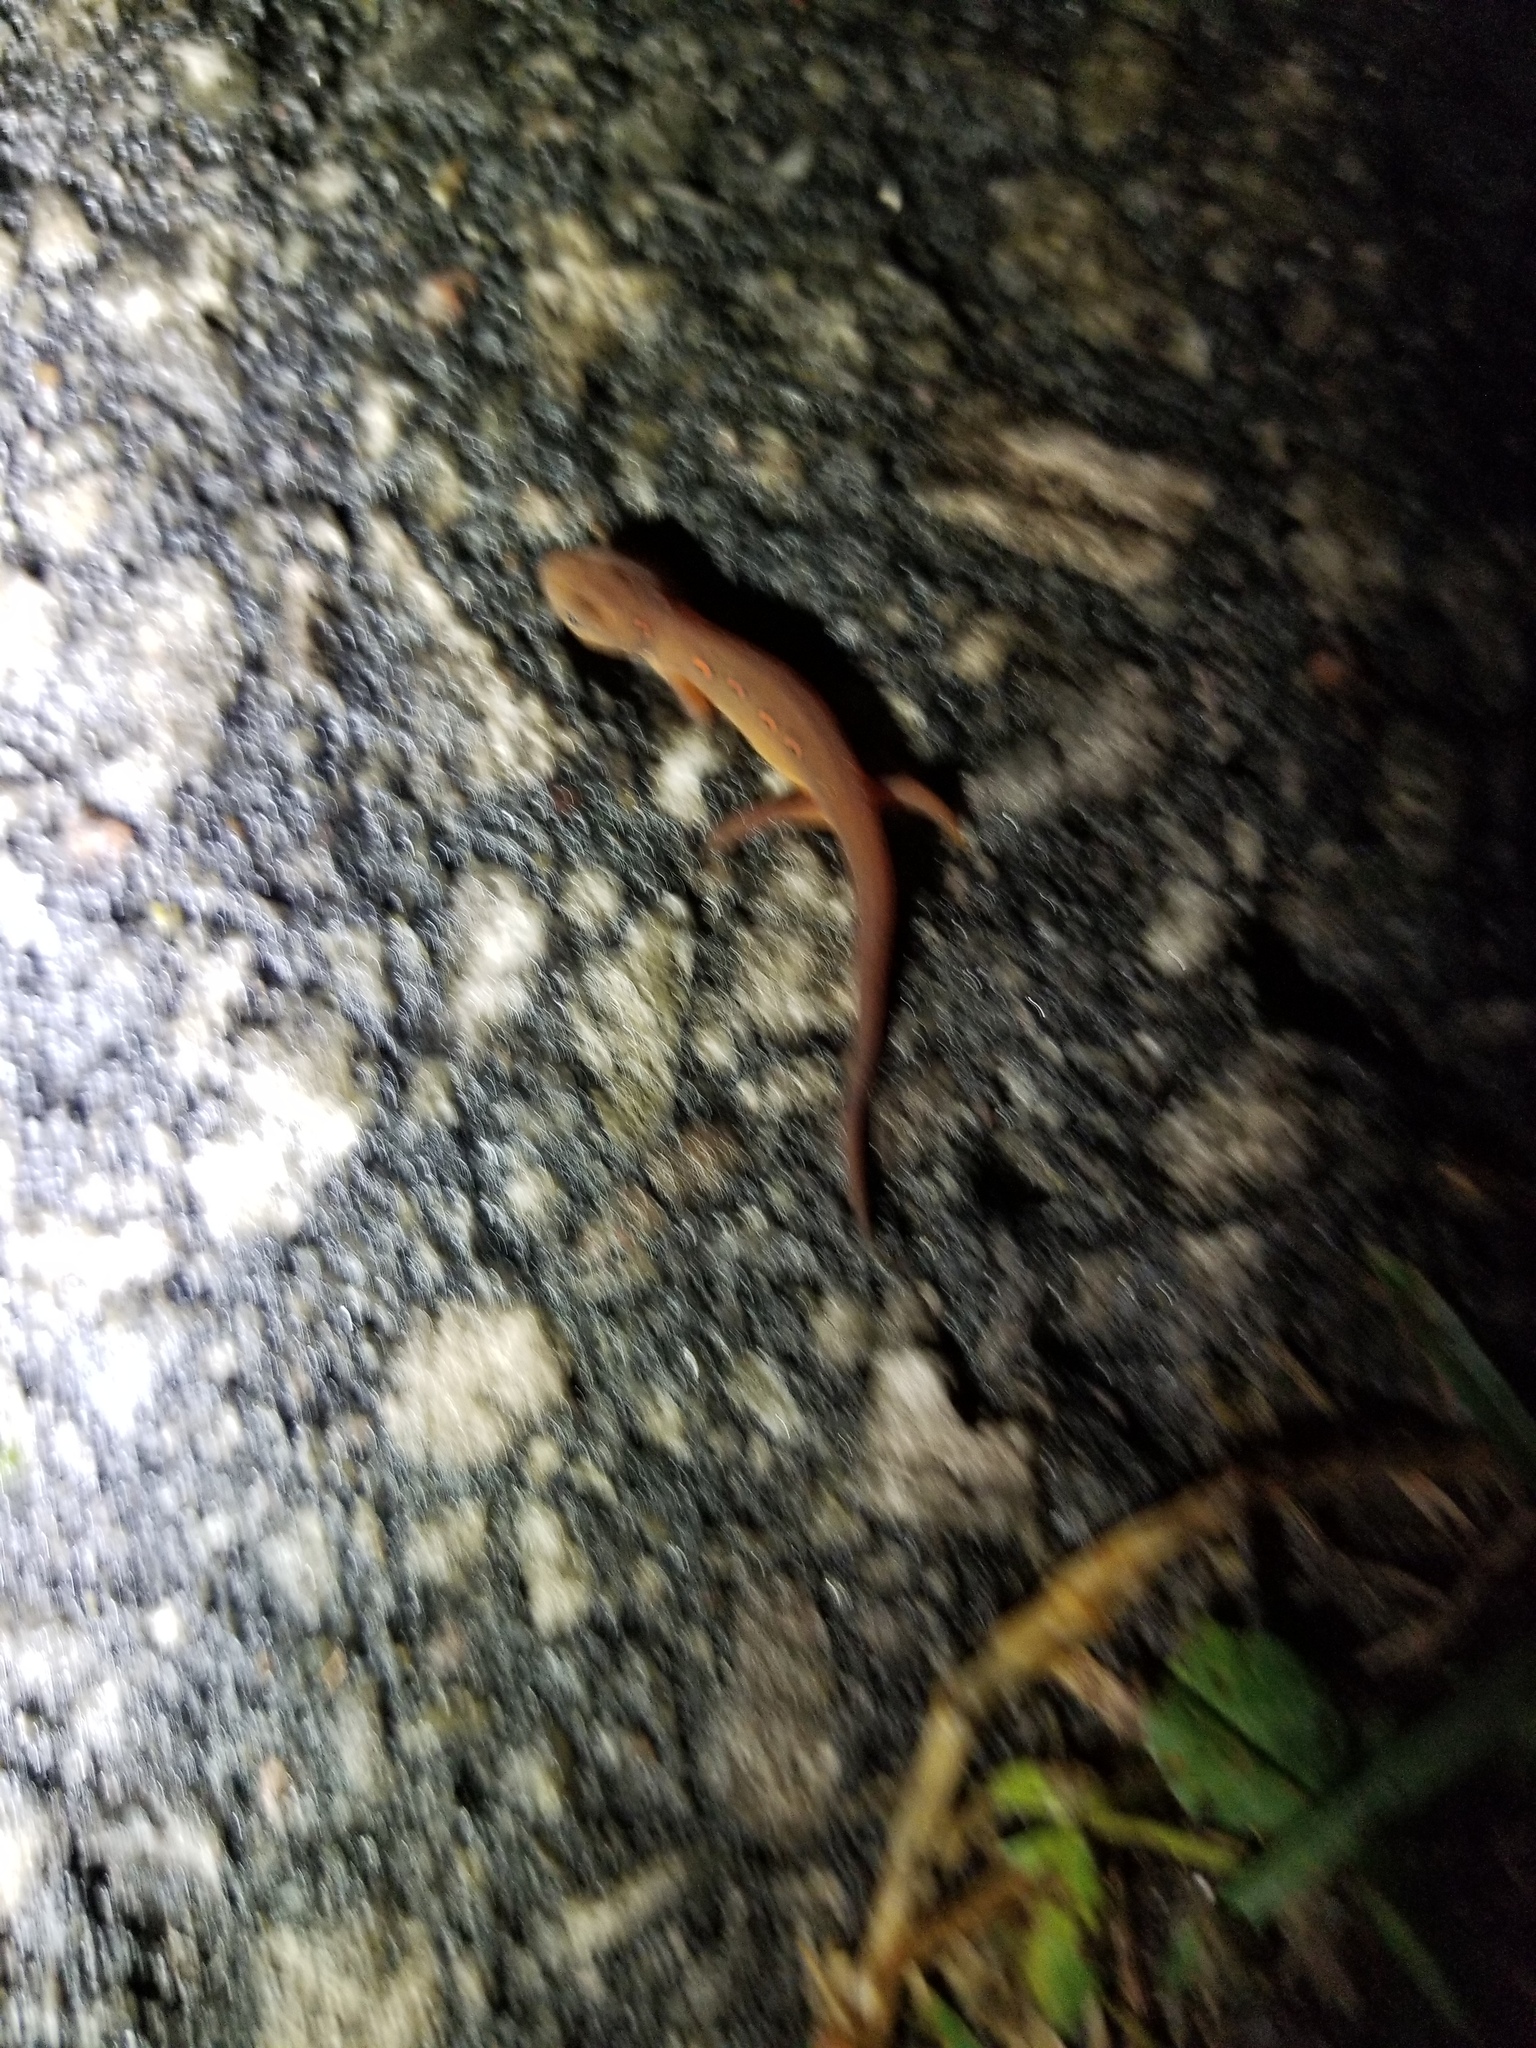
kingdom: Animalia
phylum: Chordata
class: Amphibia
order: Caudata
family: Salamandridae
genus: Notophthalmus
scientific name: Notophthalmus viridescens
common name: Eastern newt
